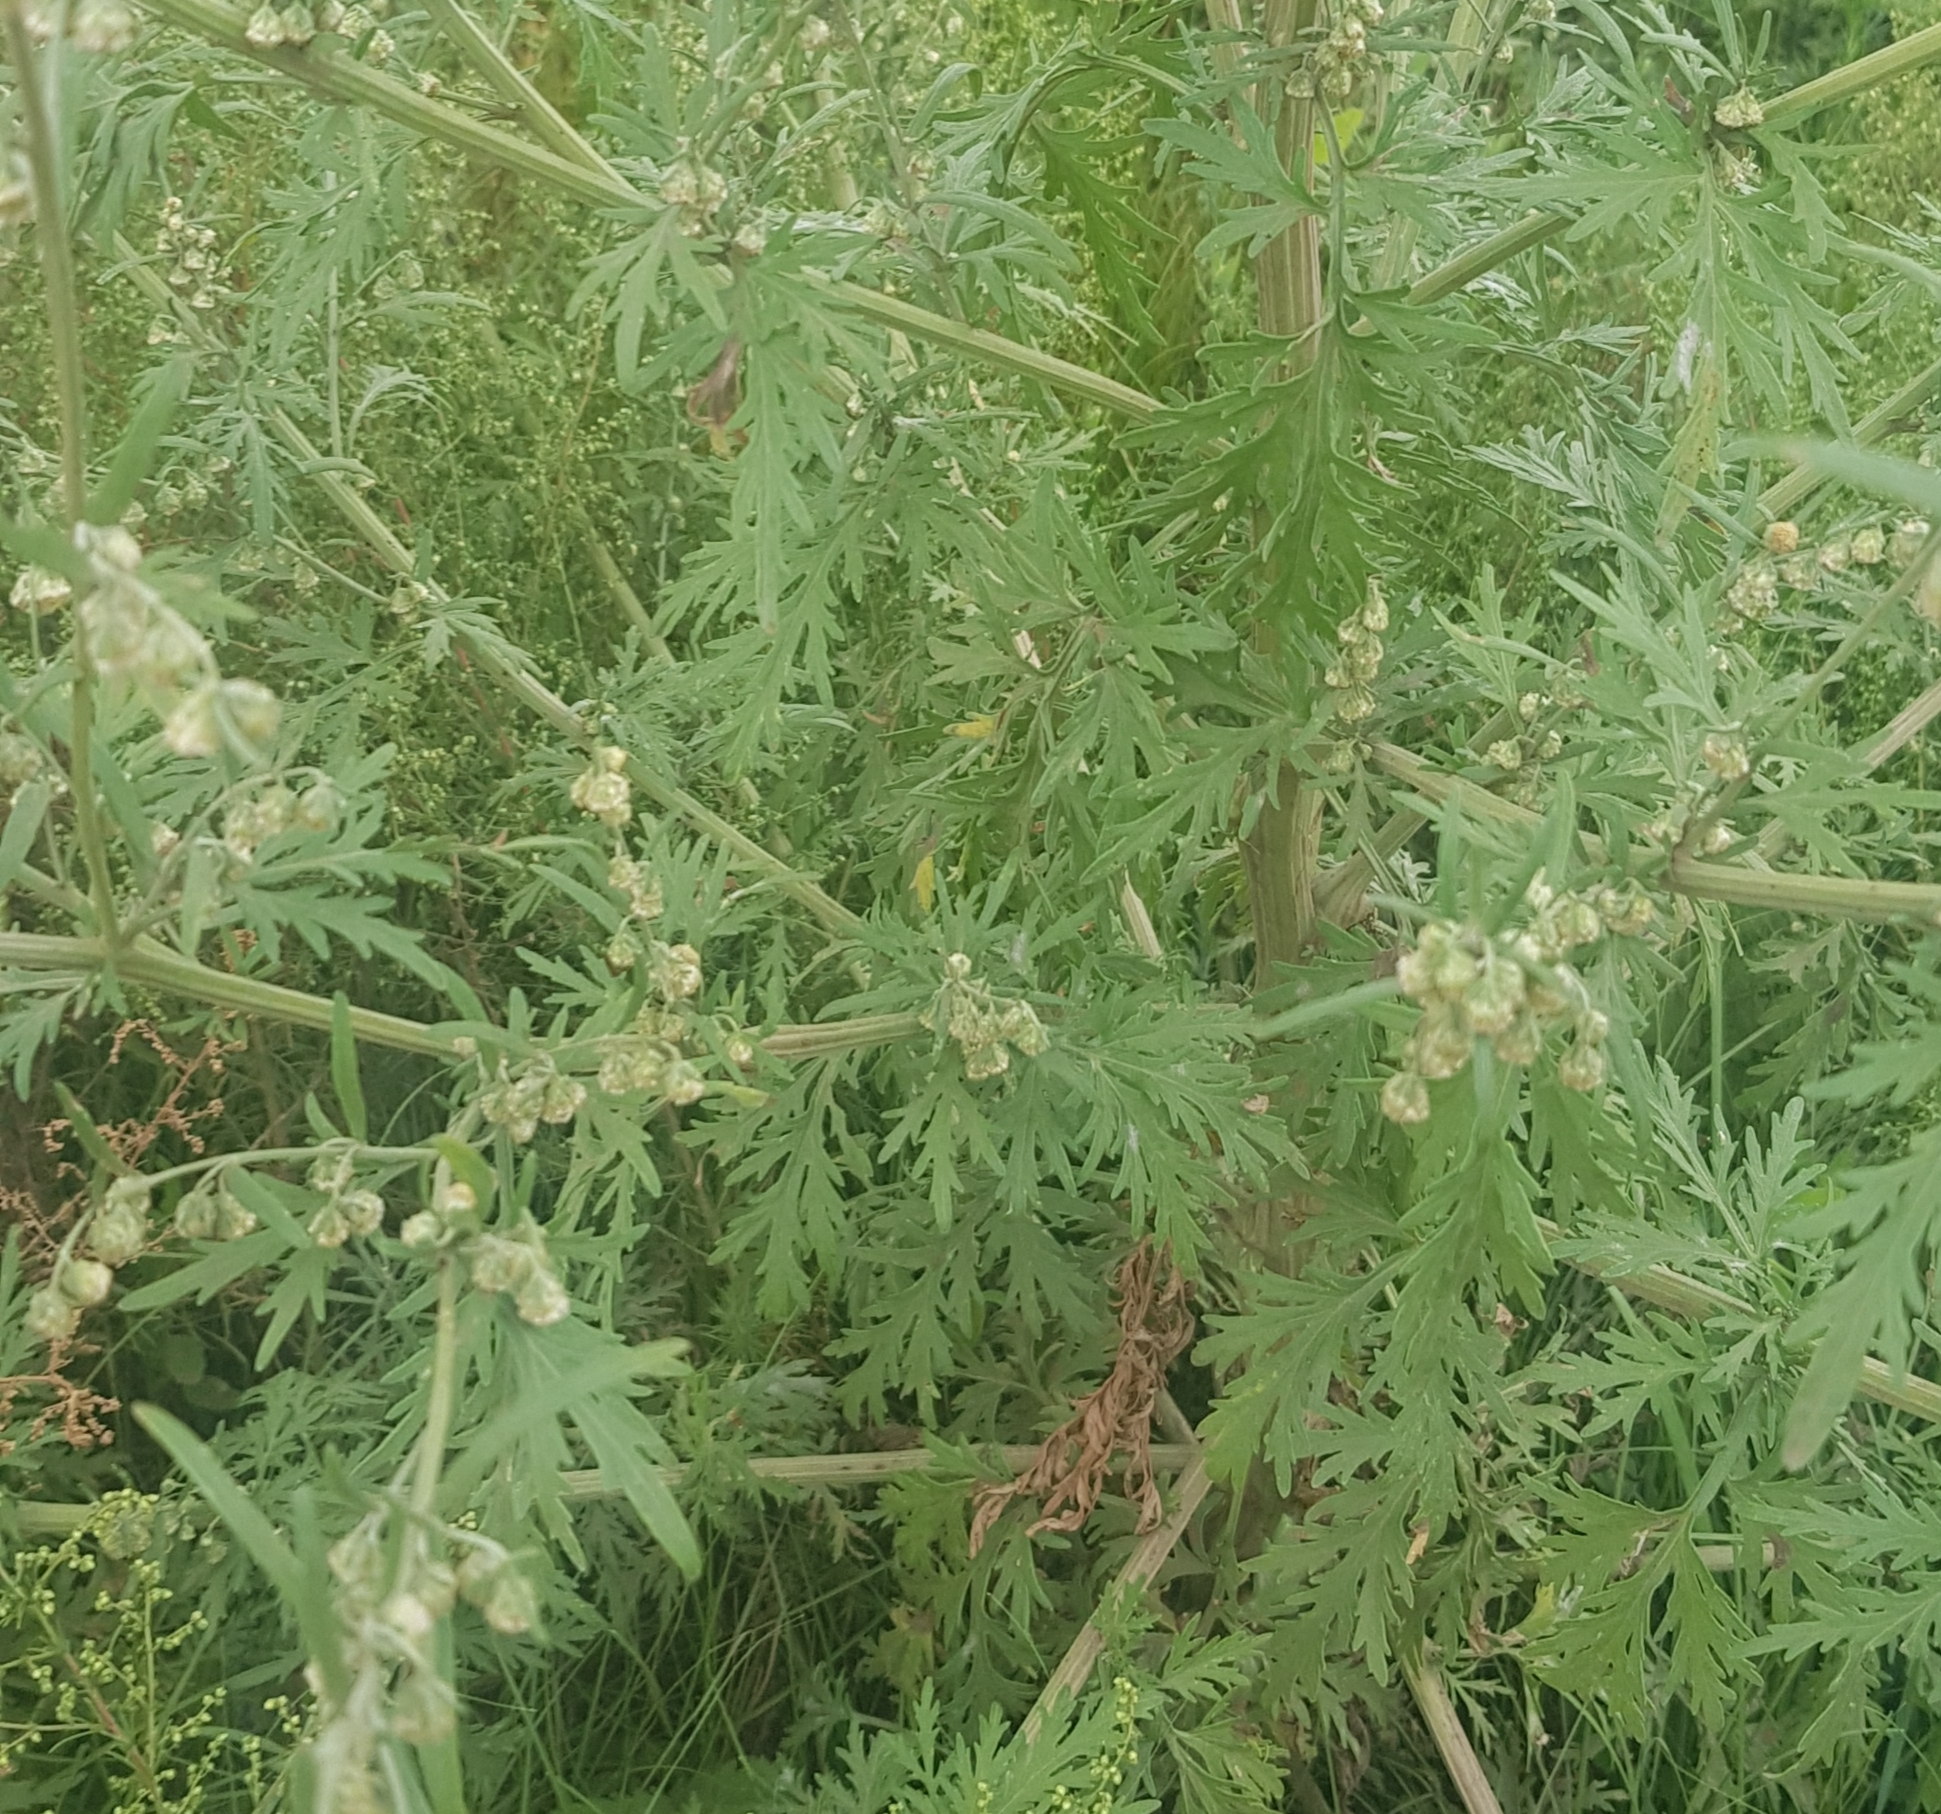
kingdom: Plantae
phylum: Tracheophyta
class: Magnoliopsida
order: Asterales
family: Asteraceae
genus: Artemisia
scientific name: Artemisia sieversiana
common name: Sieversian wormwood
